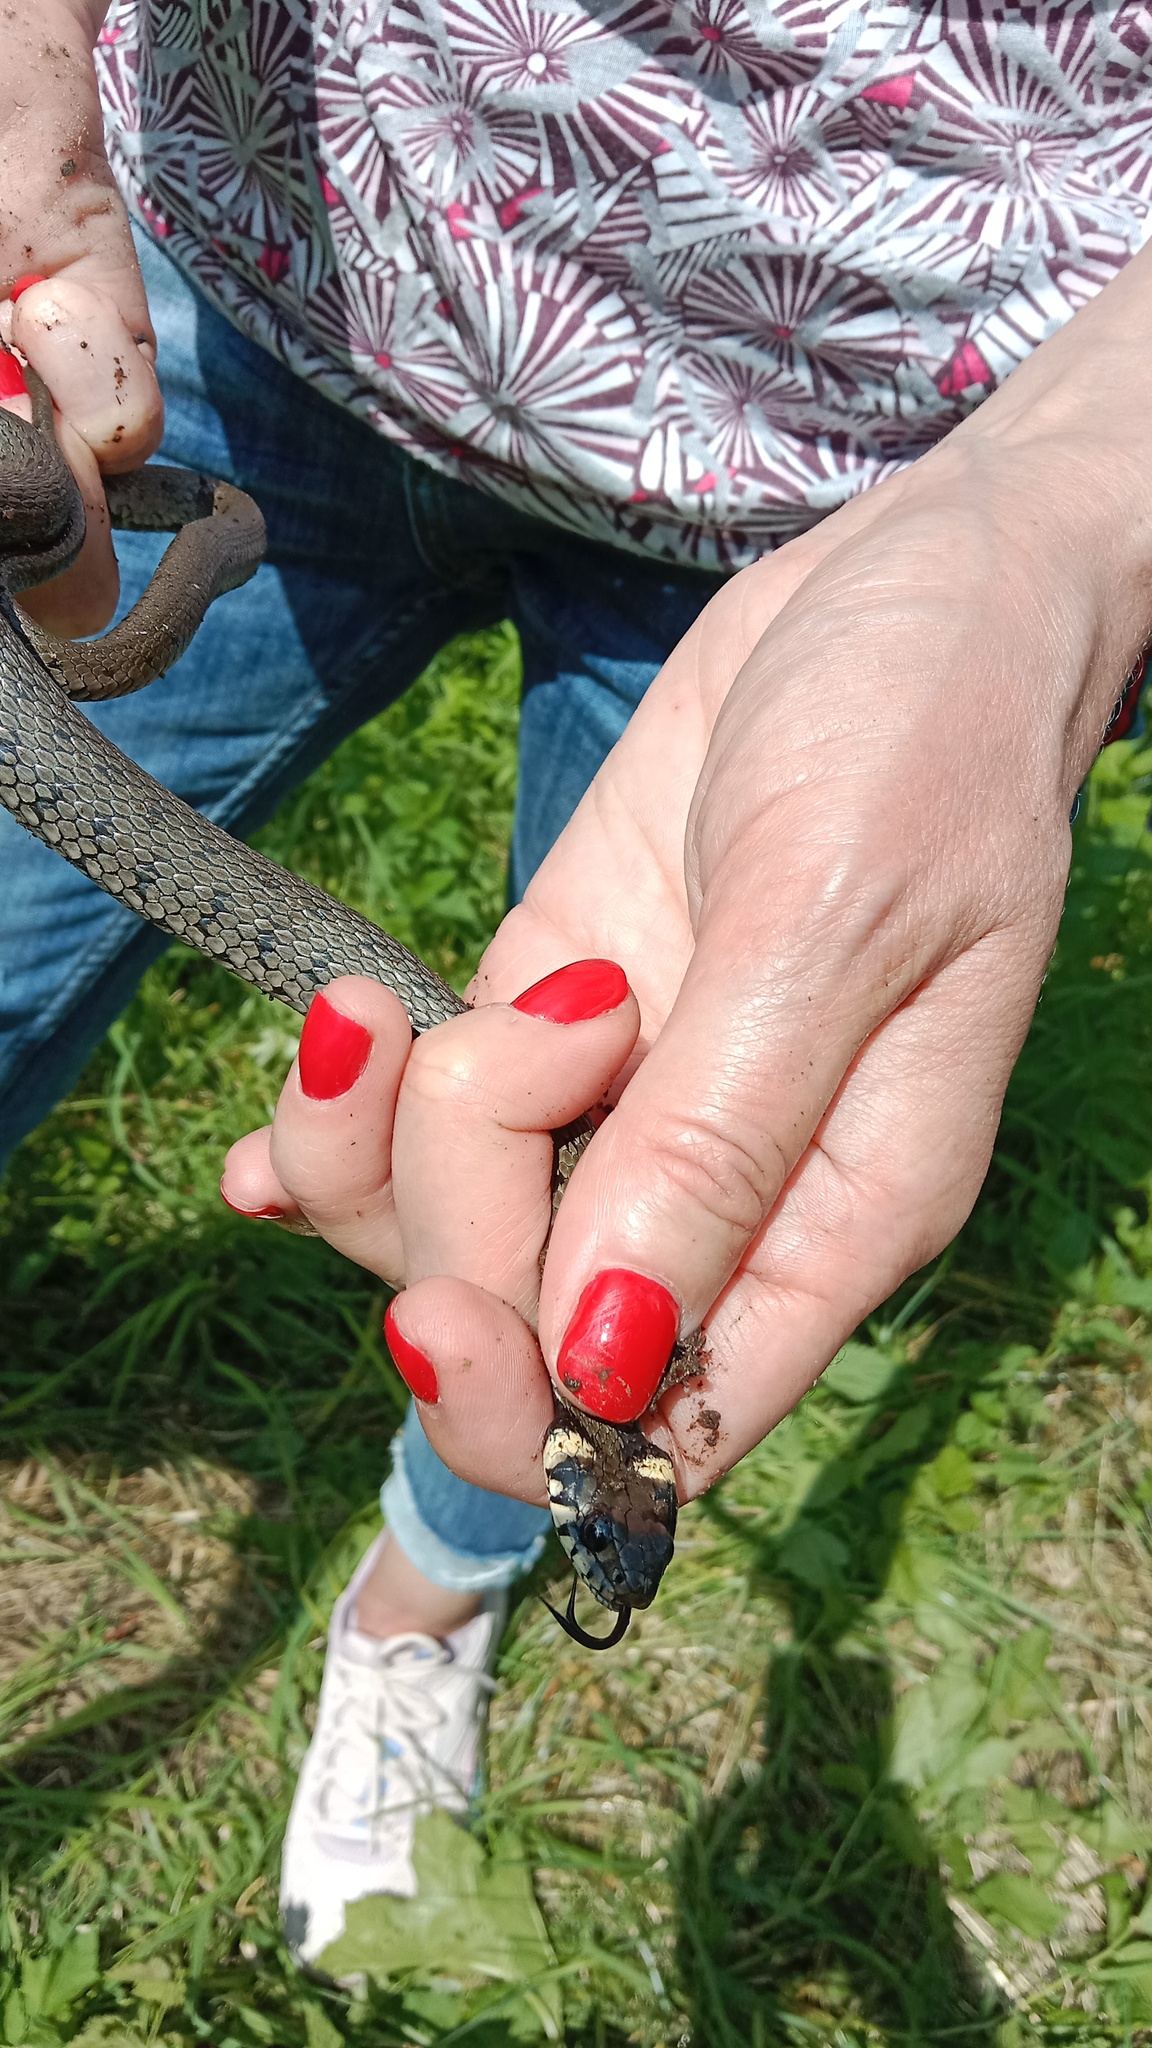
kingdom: Animalia
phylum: Chordata
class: Squamata
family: Colubridae
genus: Natrix
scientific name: Natrix natrix
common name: Grass snake
